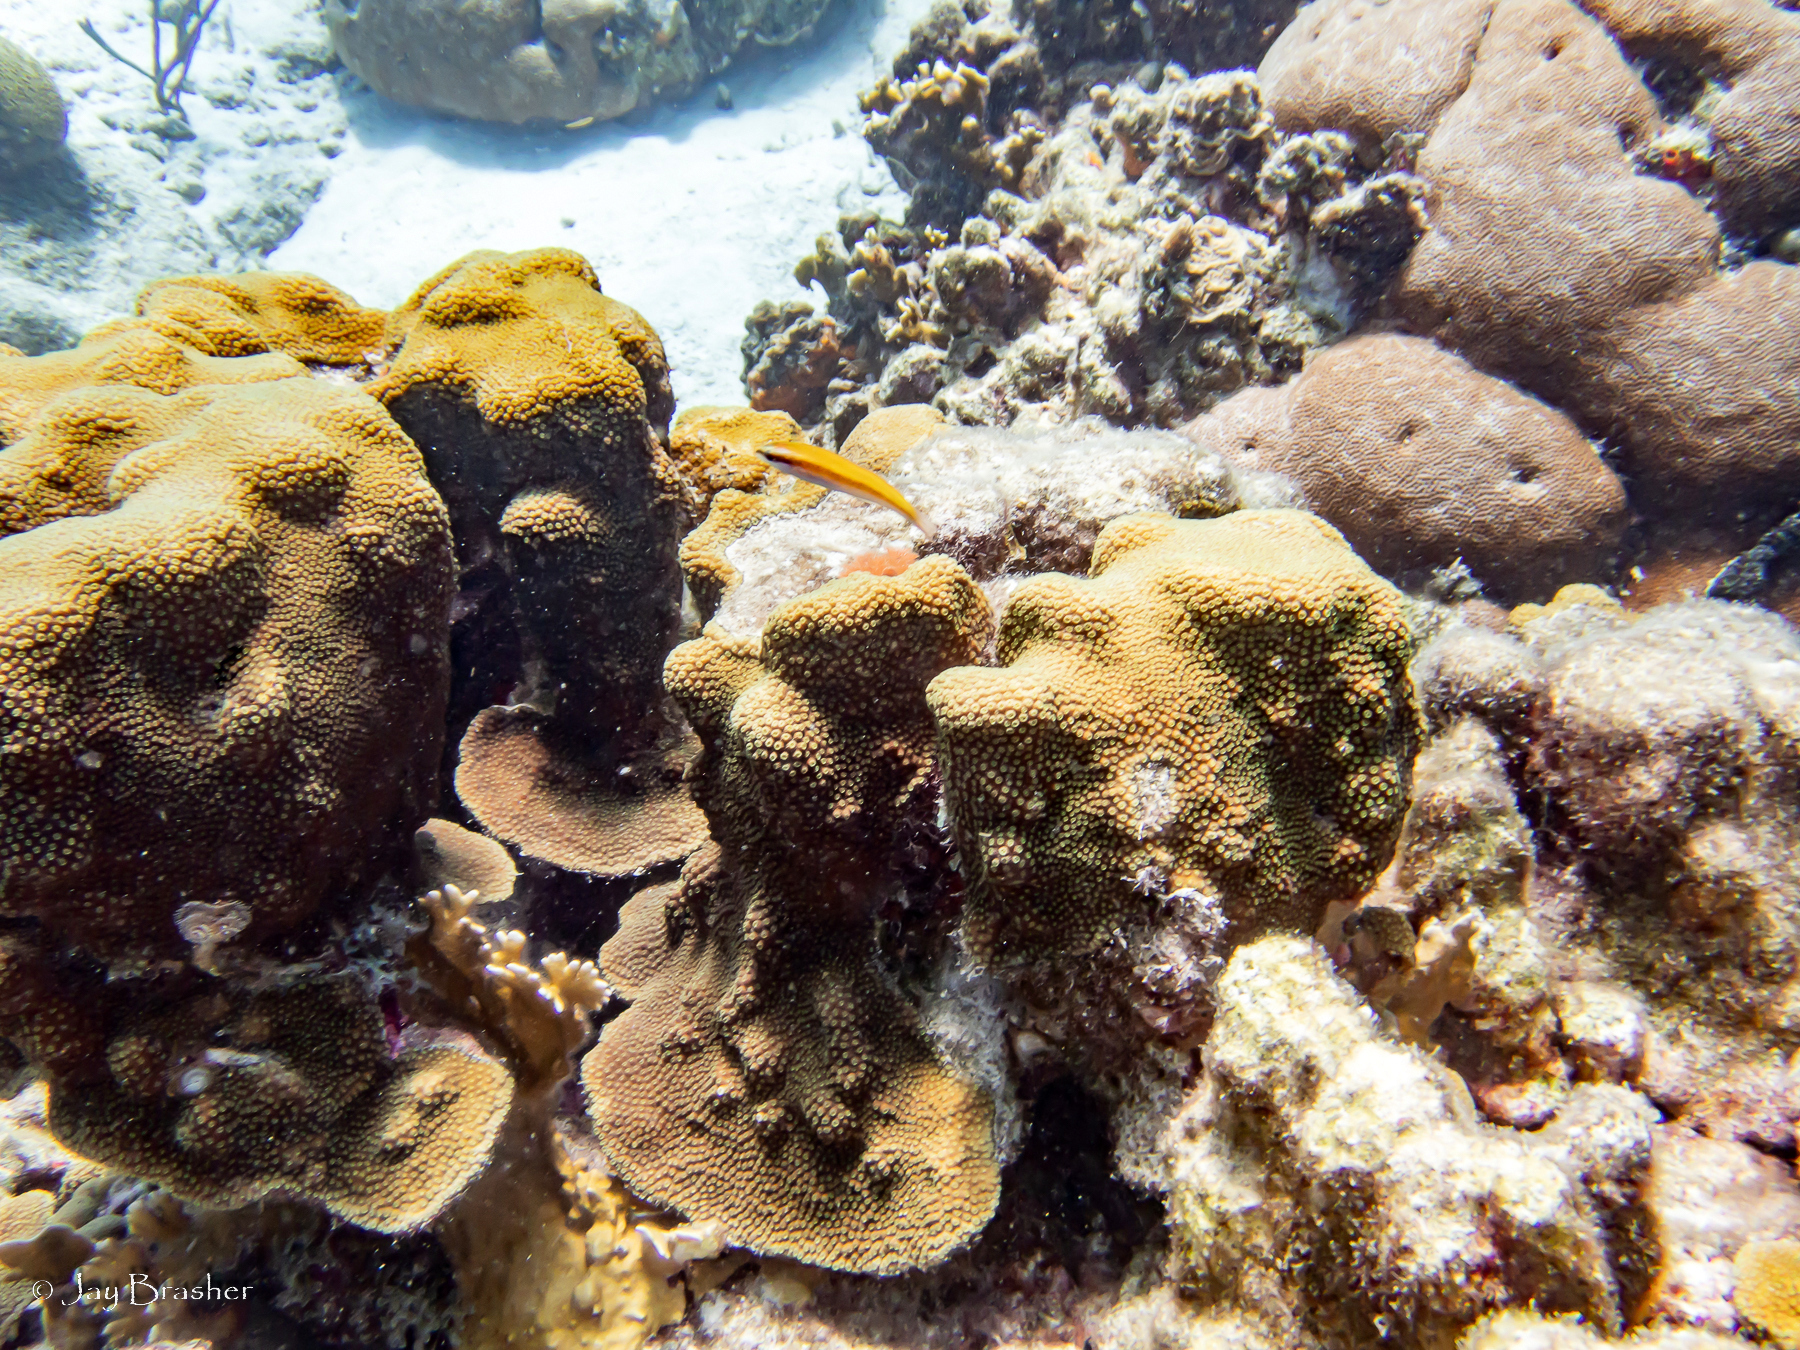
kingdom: Animalia
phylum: Cnidaria
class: Anthozoa
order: Scleractinia
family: Rhizangiidae
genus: Siderastrea
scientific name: Siderastrea siderea
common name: Massive starlet coral
